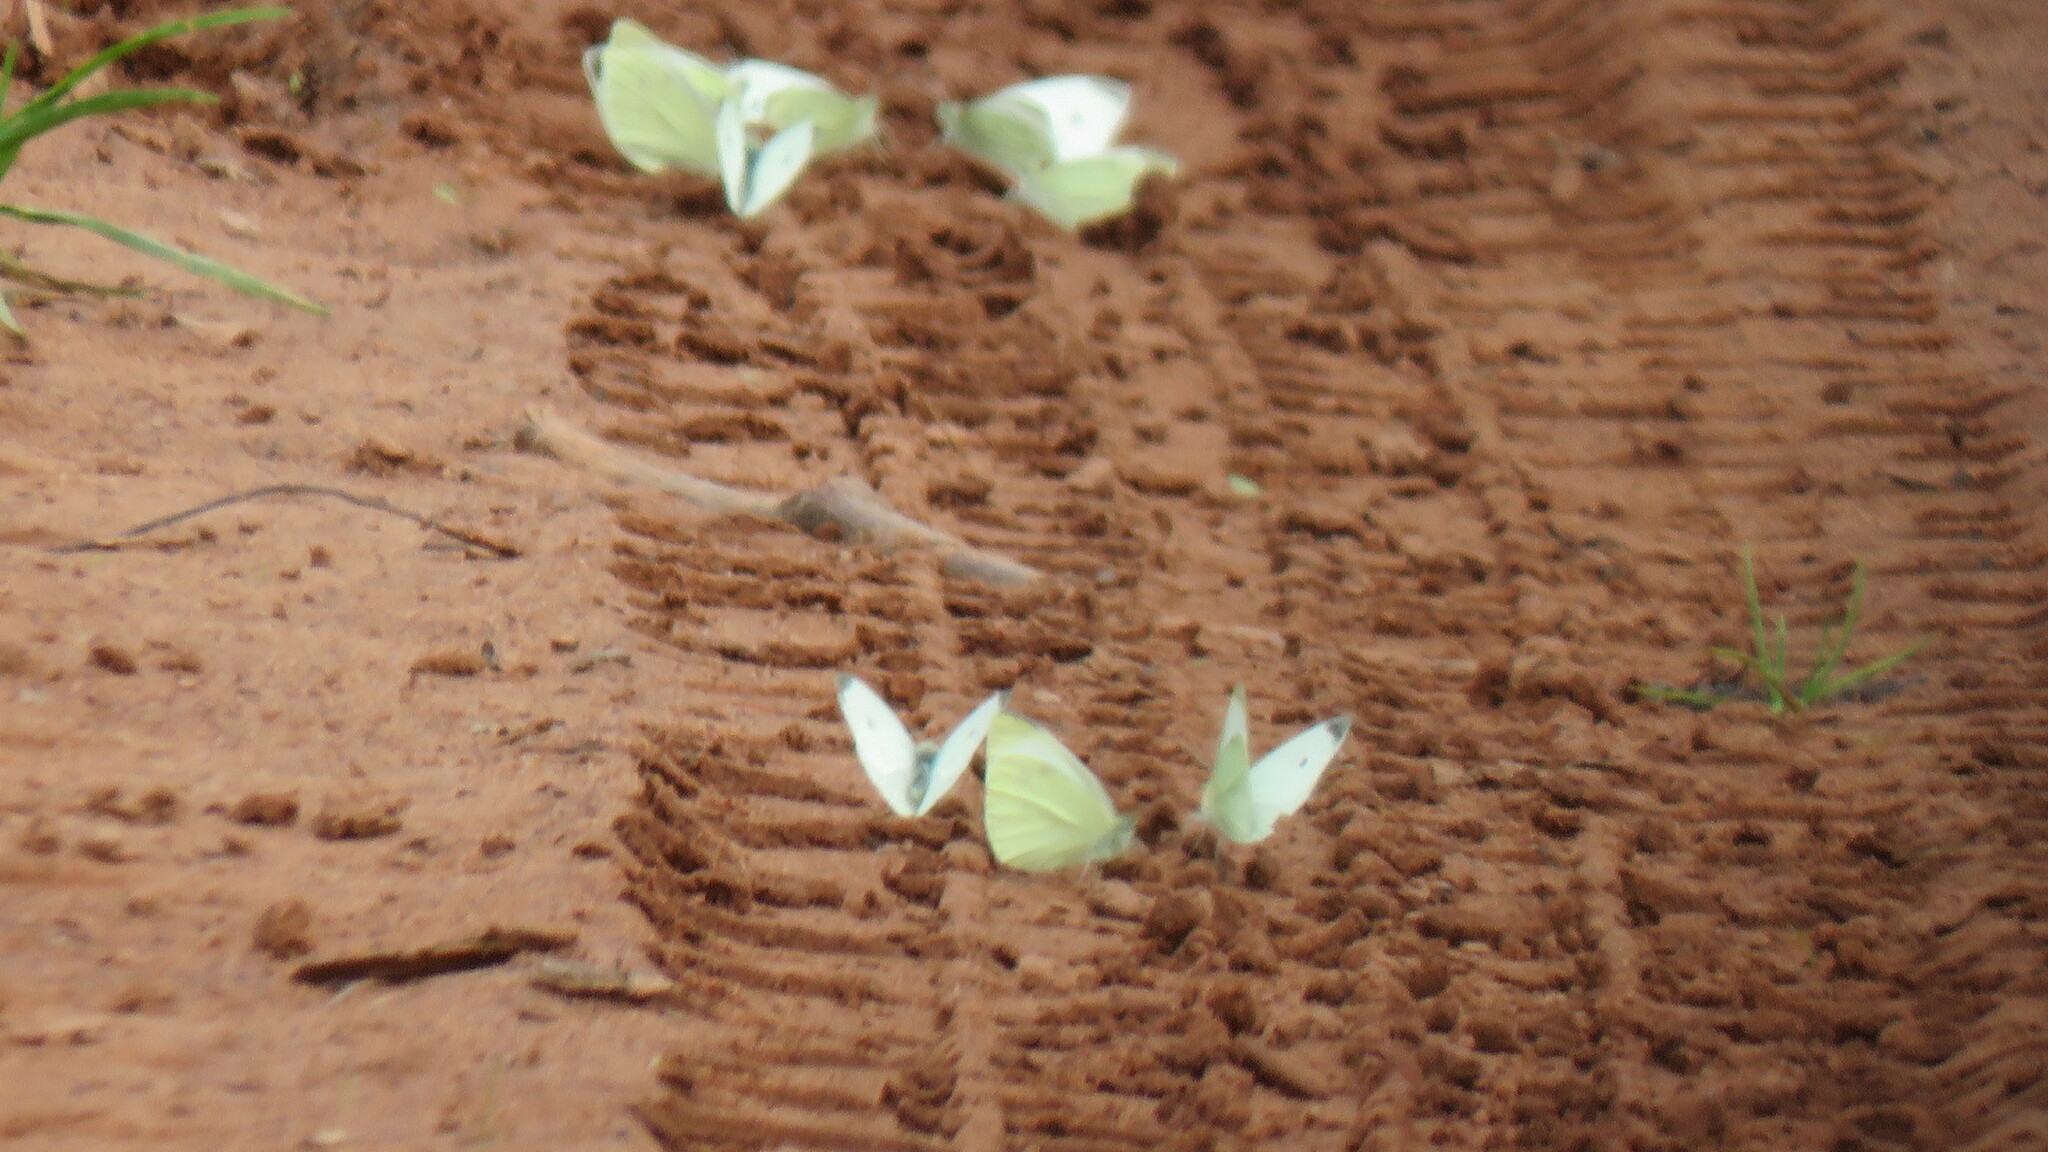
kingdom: Animalia
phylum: Arthropoda
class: Insecta
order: Lepidoptera
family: Pieridae
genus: Pieris
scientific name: Pieris rapae
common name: Small white
